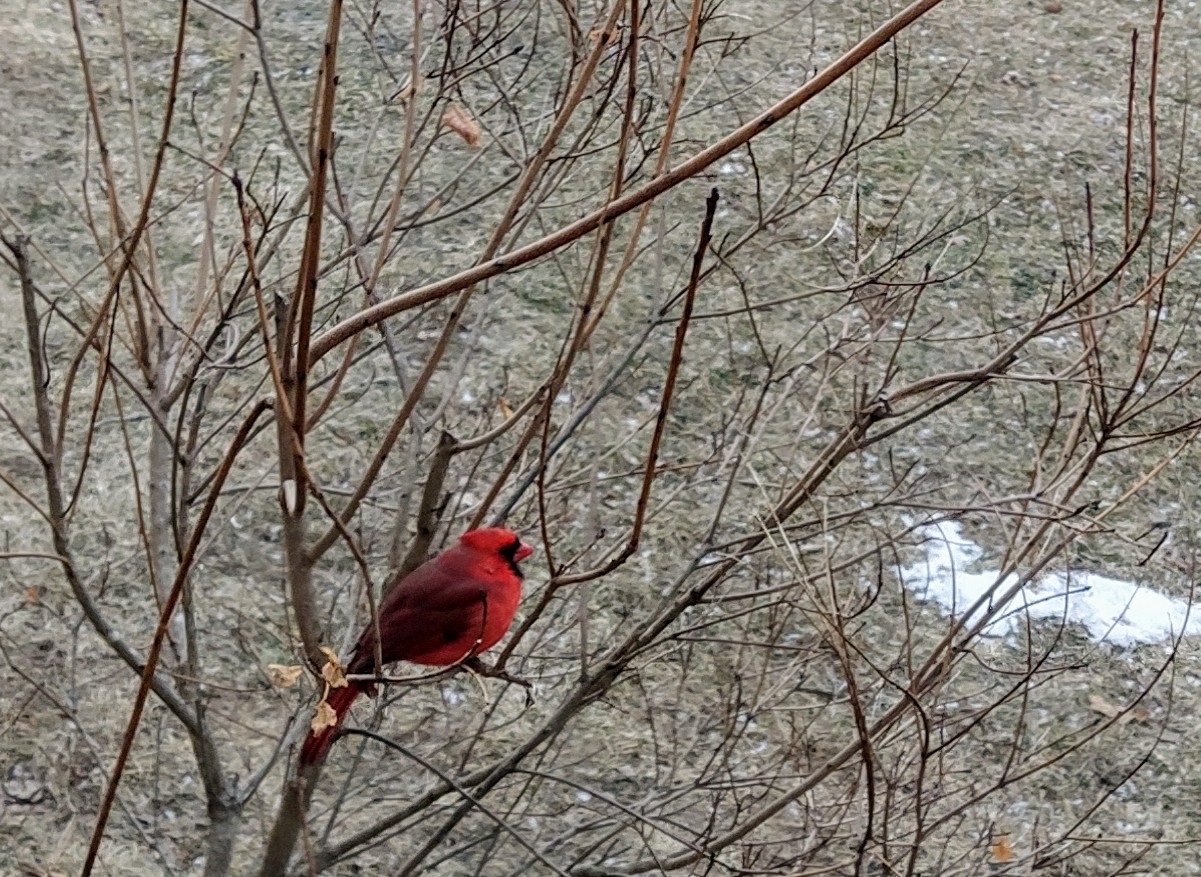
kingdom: Animalia
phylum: Chordata
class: Aves
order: Passeriformes
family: Cardinalidae
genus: Cardinalis
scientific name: Cardinalis cardinalis
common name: Northern cardinal
